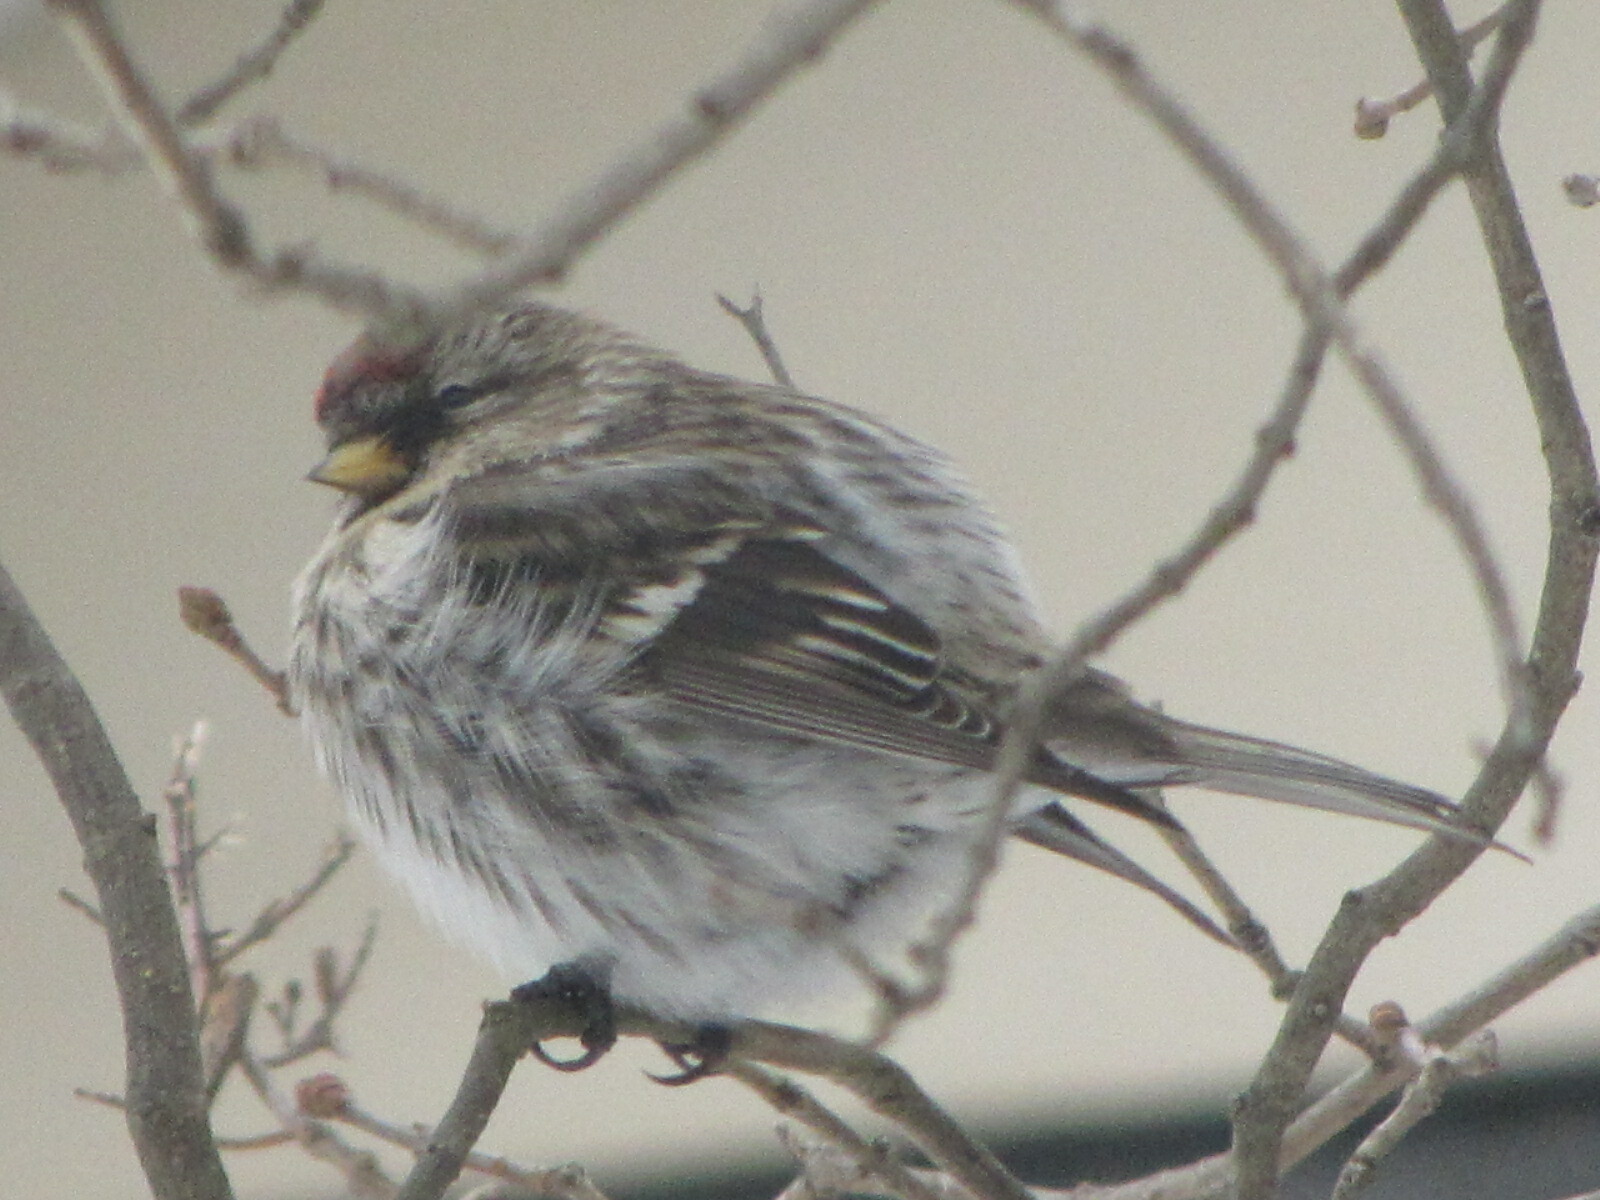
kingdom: Animalia
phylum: Chordata
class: Aves
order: Passeriformes
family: Fringillidae
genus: Acanthis
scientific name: Acanthis flammea
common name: Common redpoll
